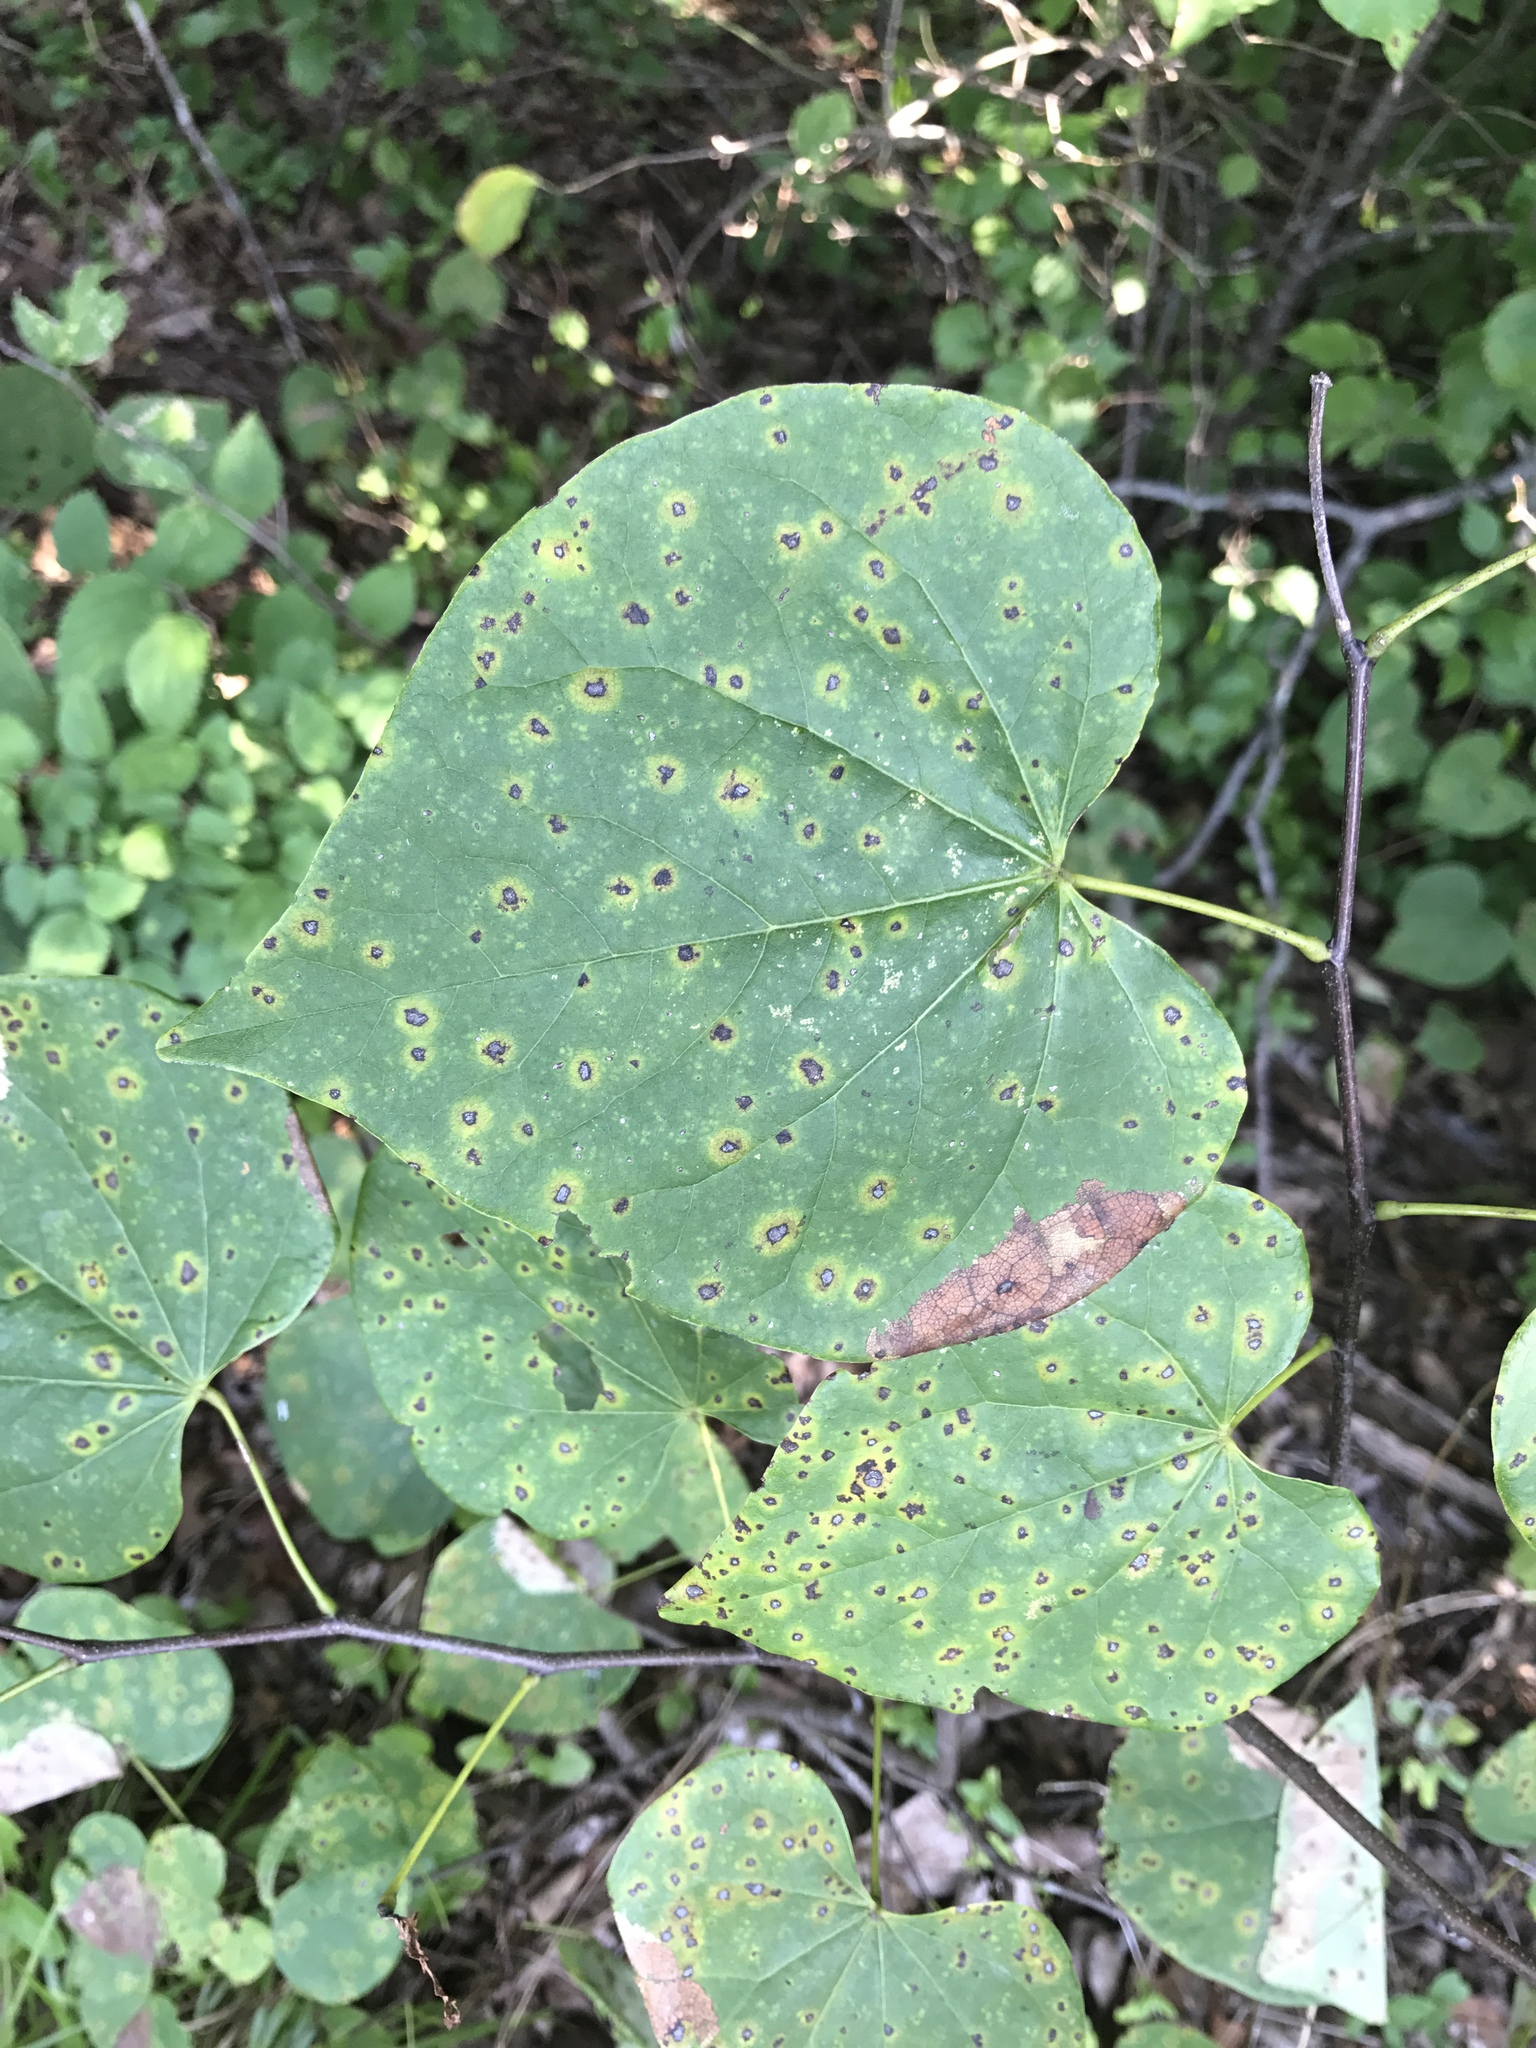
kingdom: Plantae
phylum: Tracheophyta
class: Magnoliopsida
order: Fabales
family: Fabaceae
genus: Cercis
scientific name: Cercis canadensis
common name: Eastern redbud
